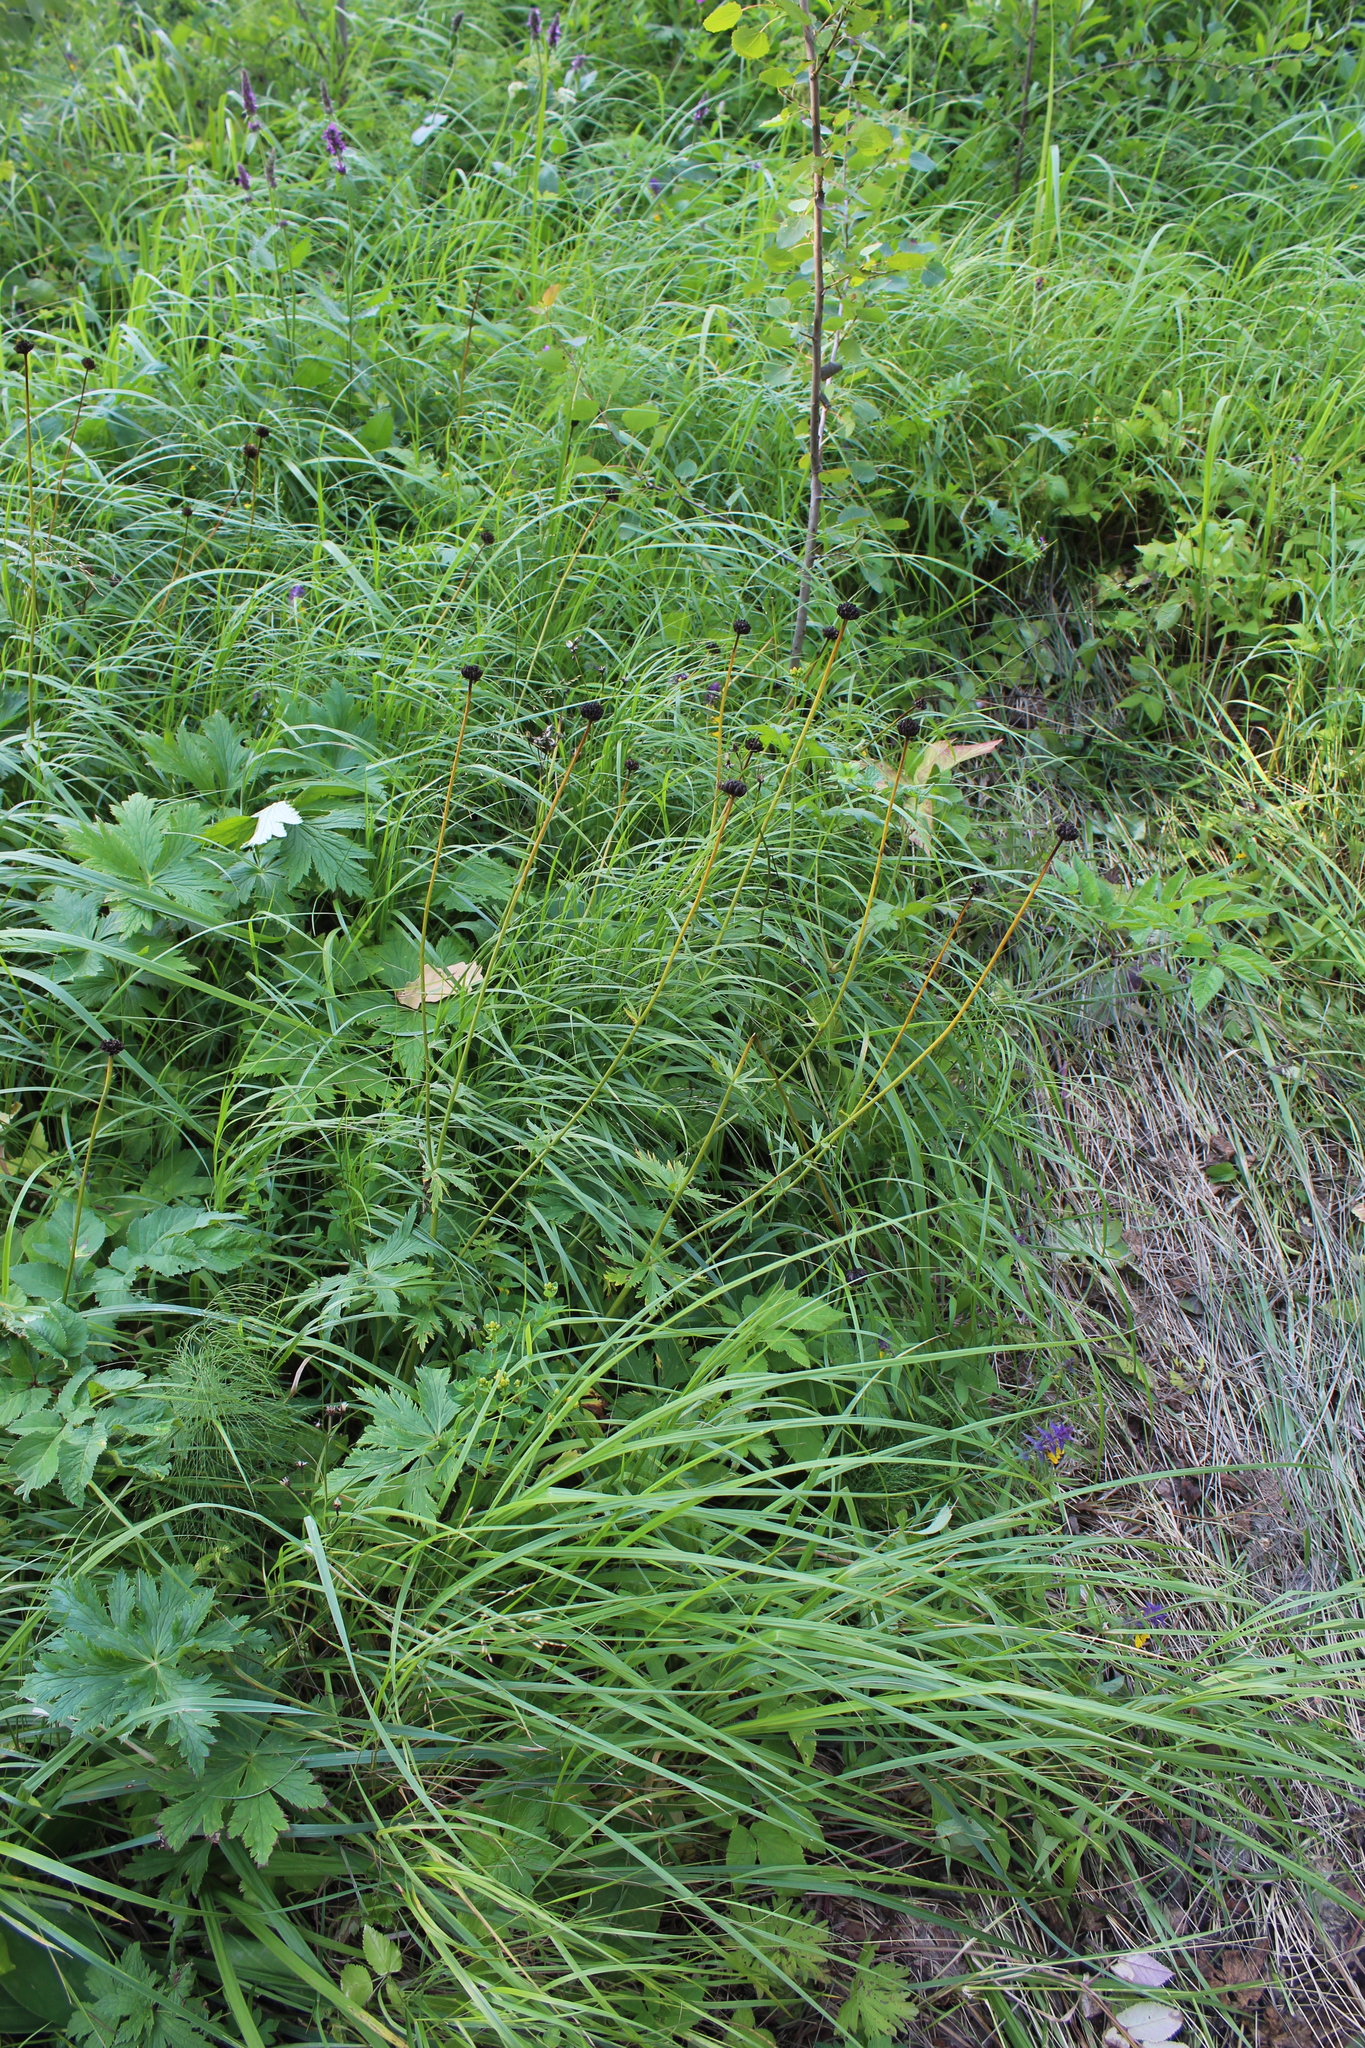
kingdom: Plantae
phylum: Tracheophyta
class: Magnoliopsida
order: Ranunculales
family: Ranunculaceae
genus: Trollius
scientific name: Trollius europaeus
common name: European globeflower
